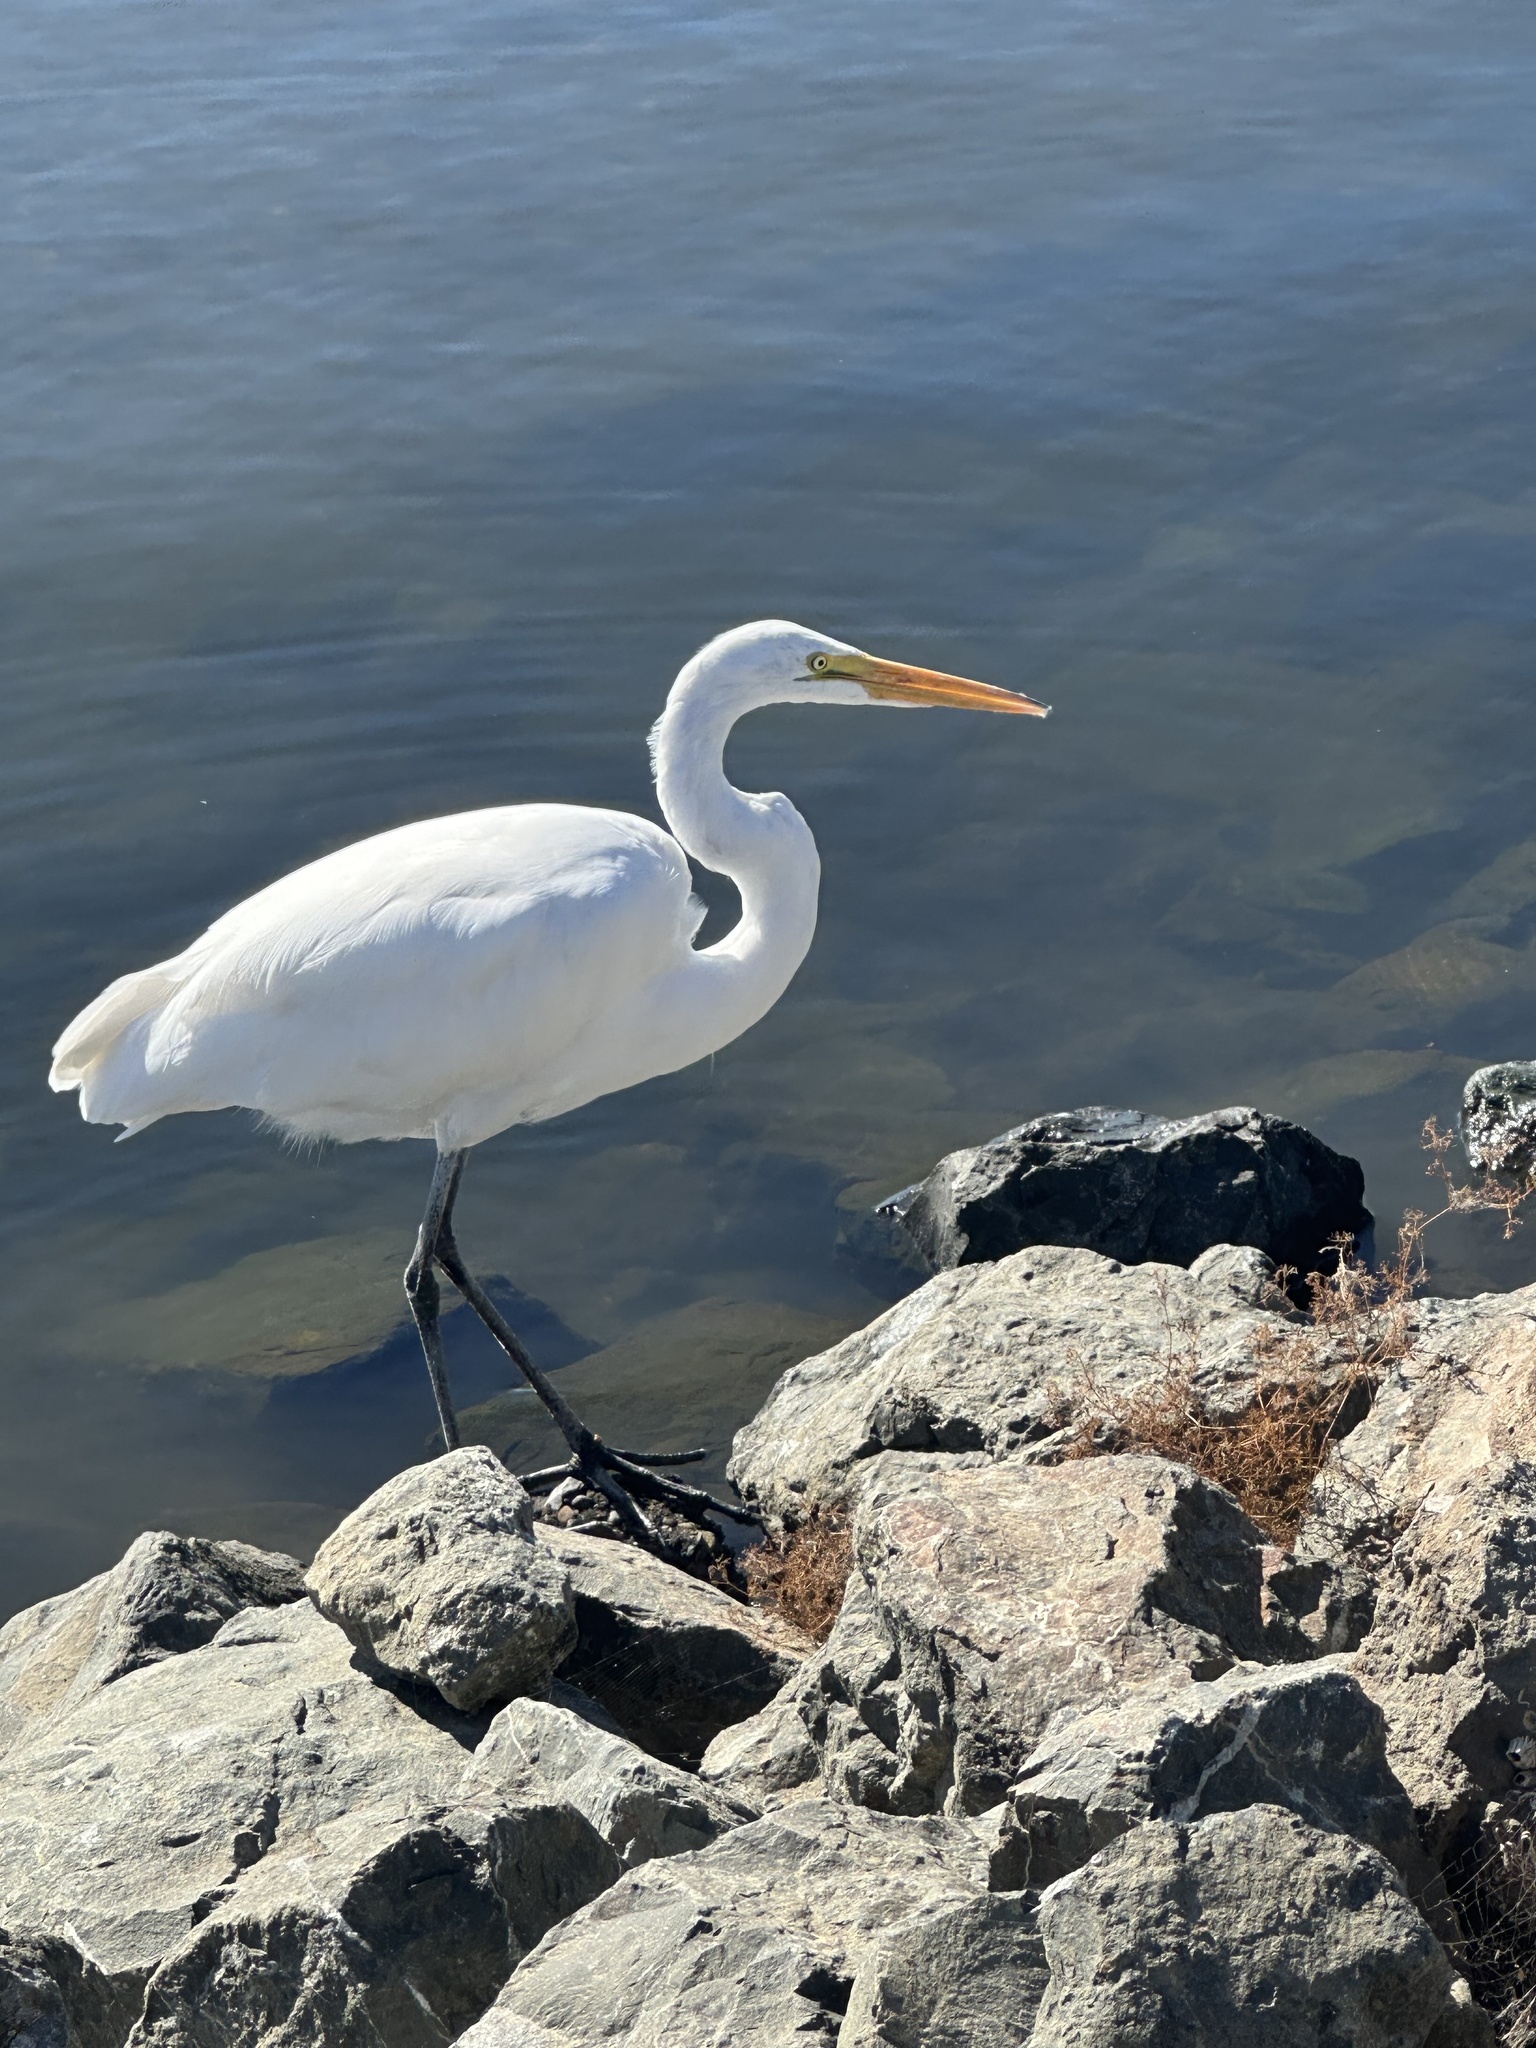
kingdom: Animalia
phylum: Chordata
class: Aves
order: Pelecaniformes
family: Ardeidae
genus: Ardea
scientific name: Ardea alba
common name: Great egret
